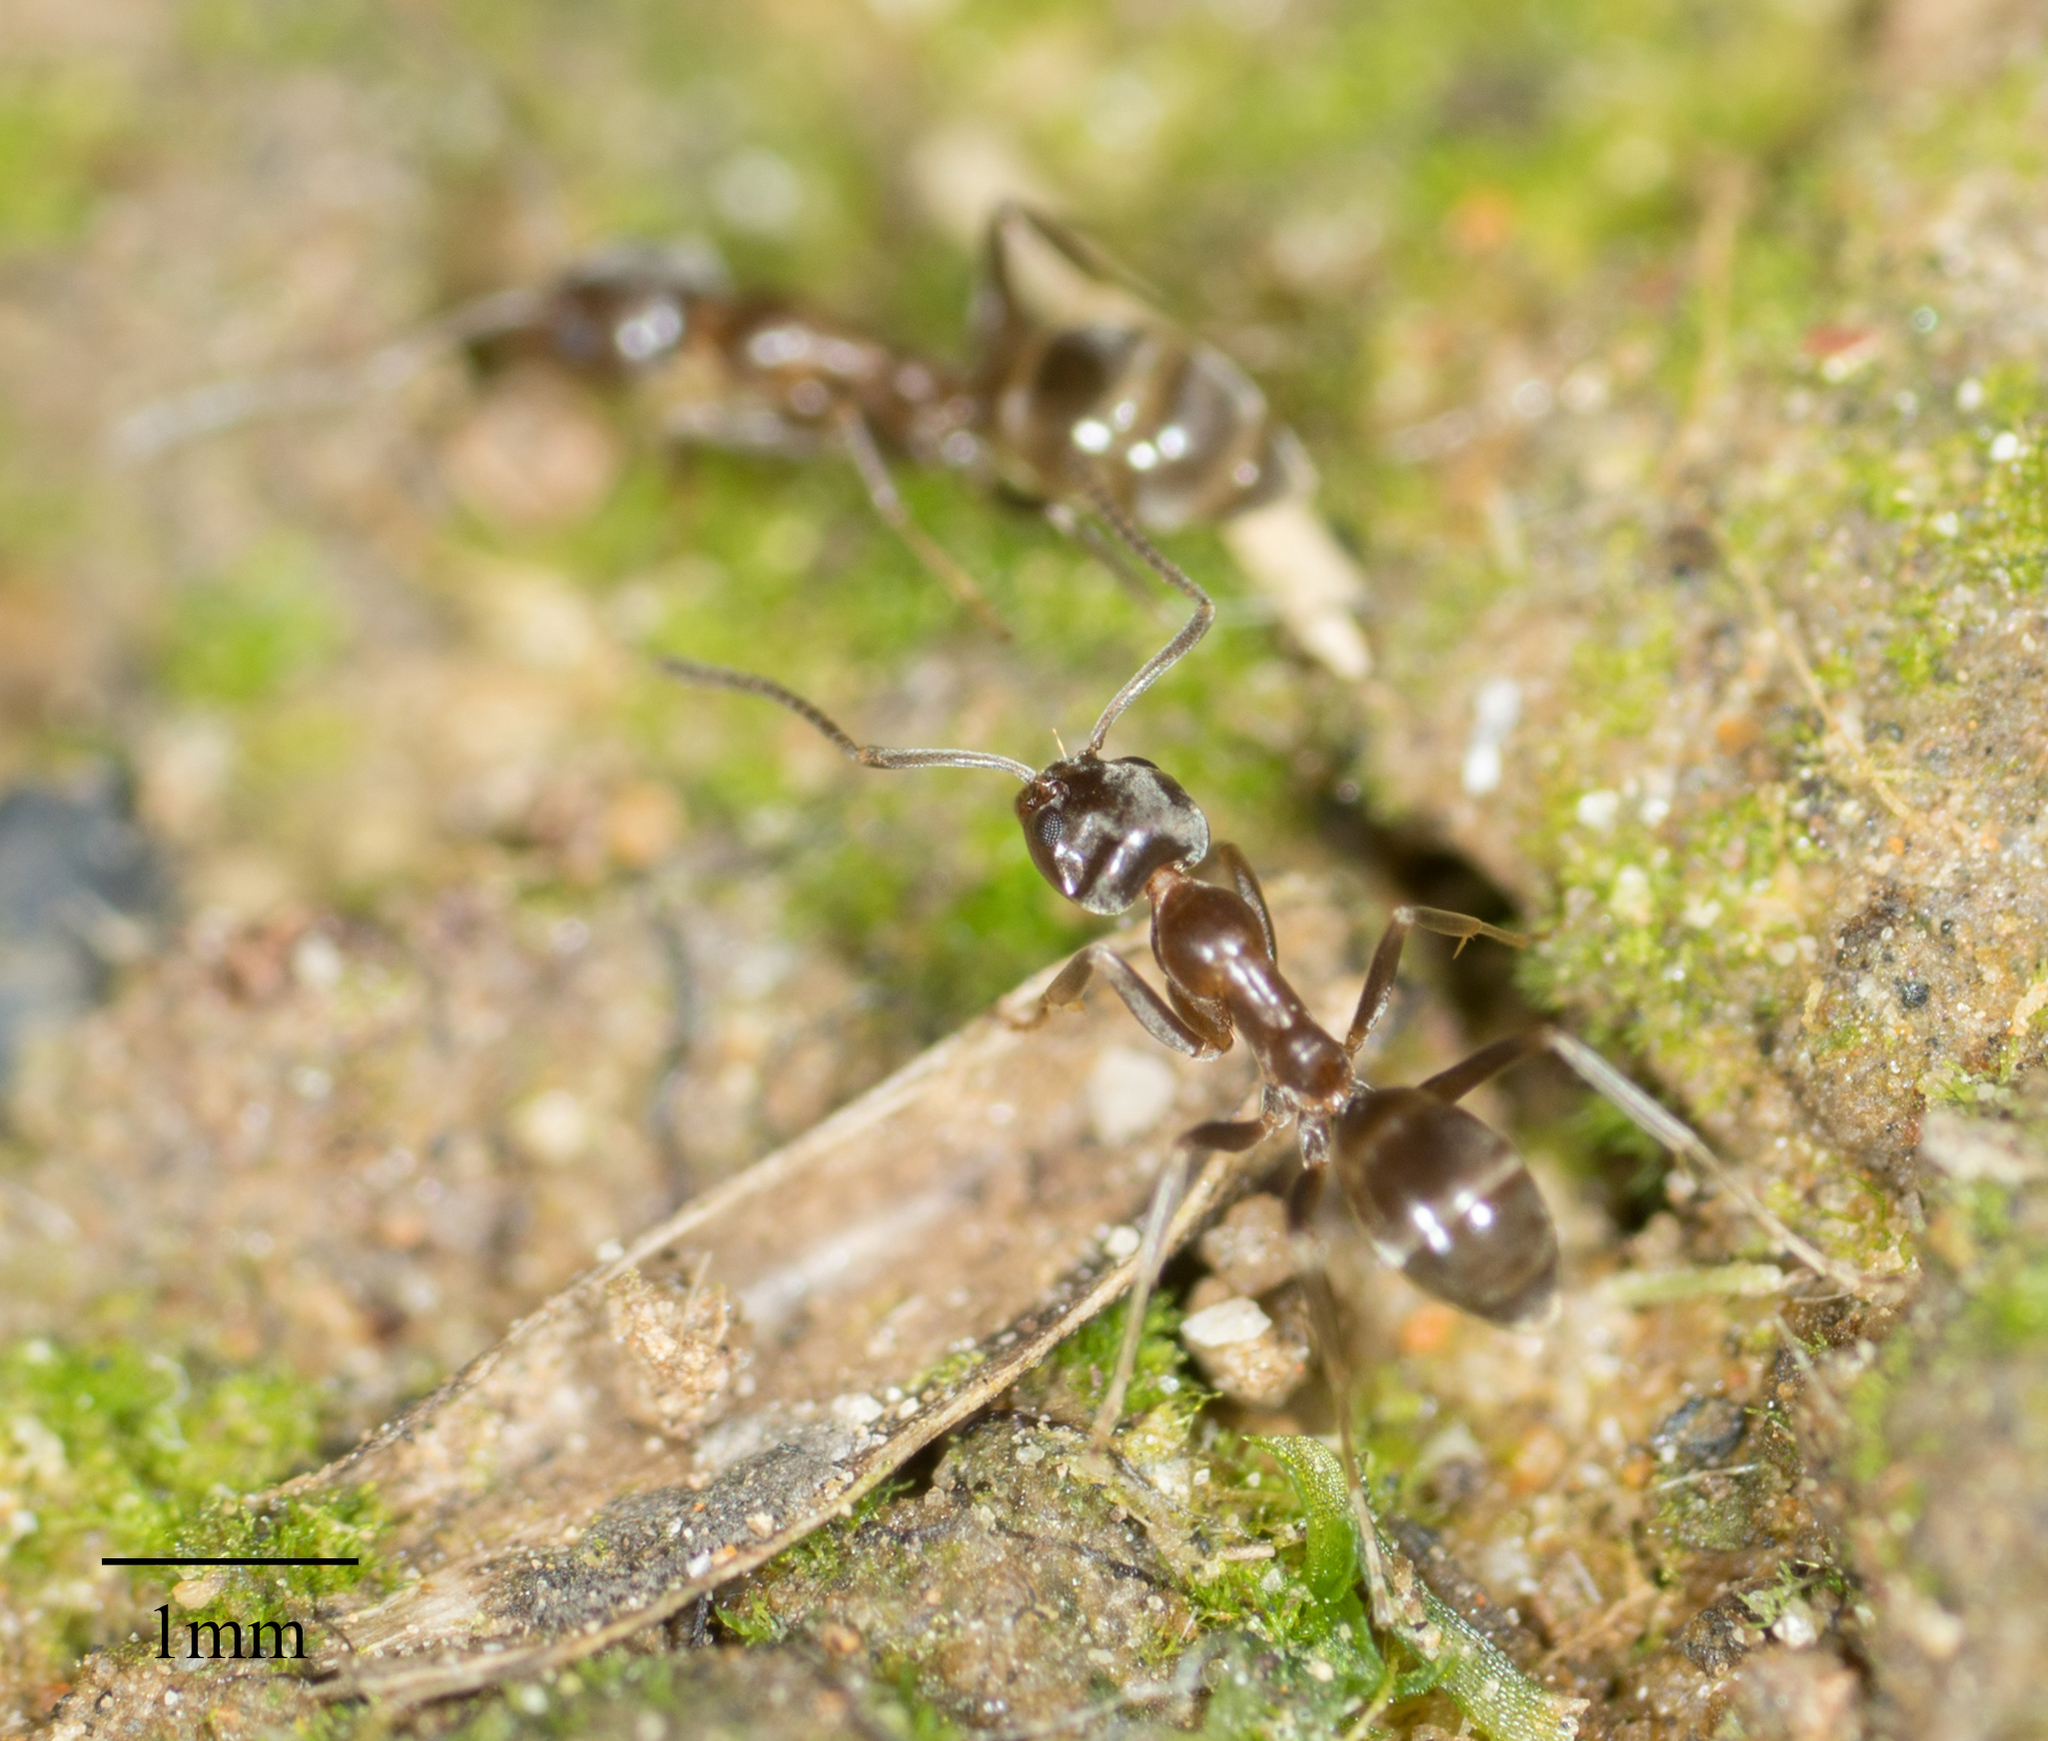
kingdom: Animalia
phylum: Arthropoda
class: Insecta
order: Hymenoptera
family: Formicidae
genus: Linepithema
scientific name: Linepithema humile
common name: Argentine ant
